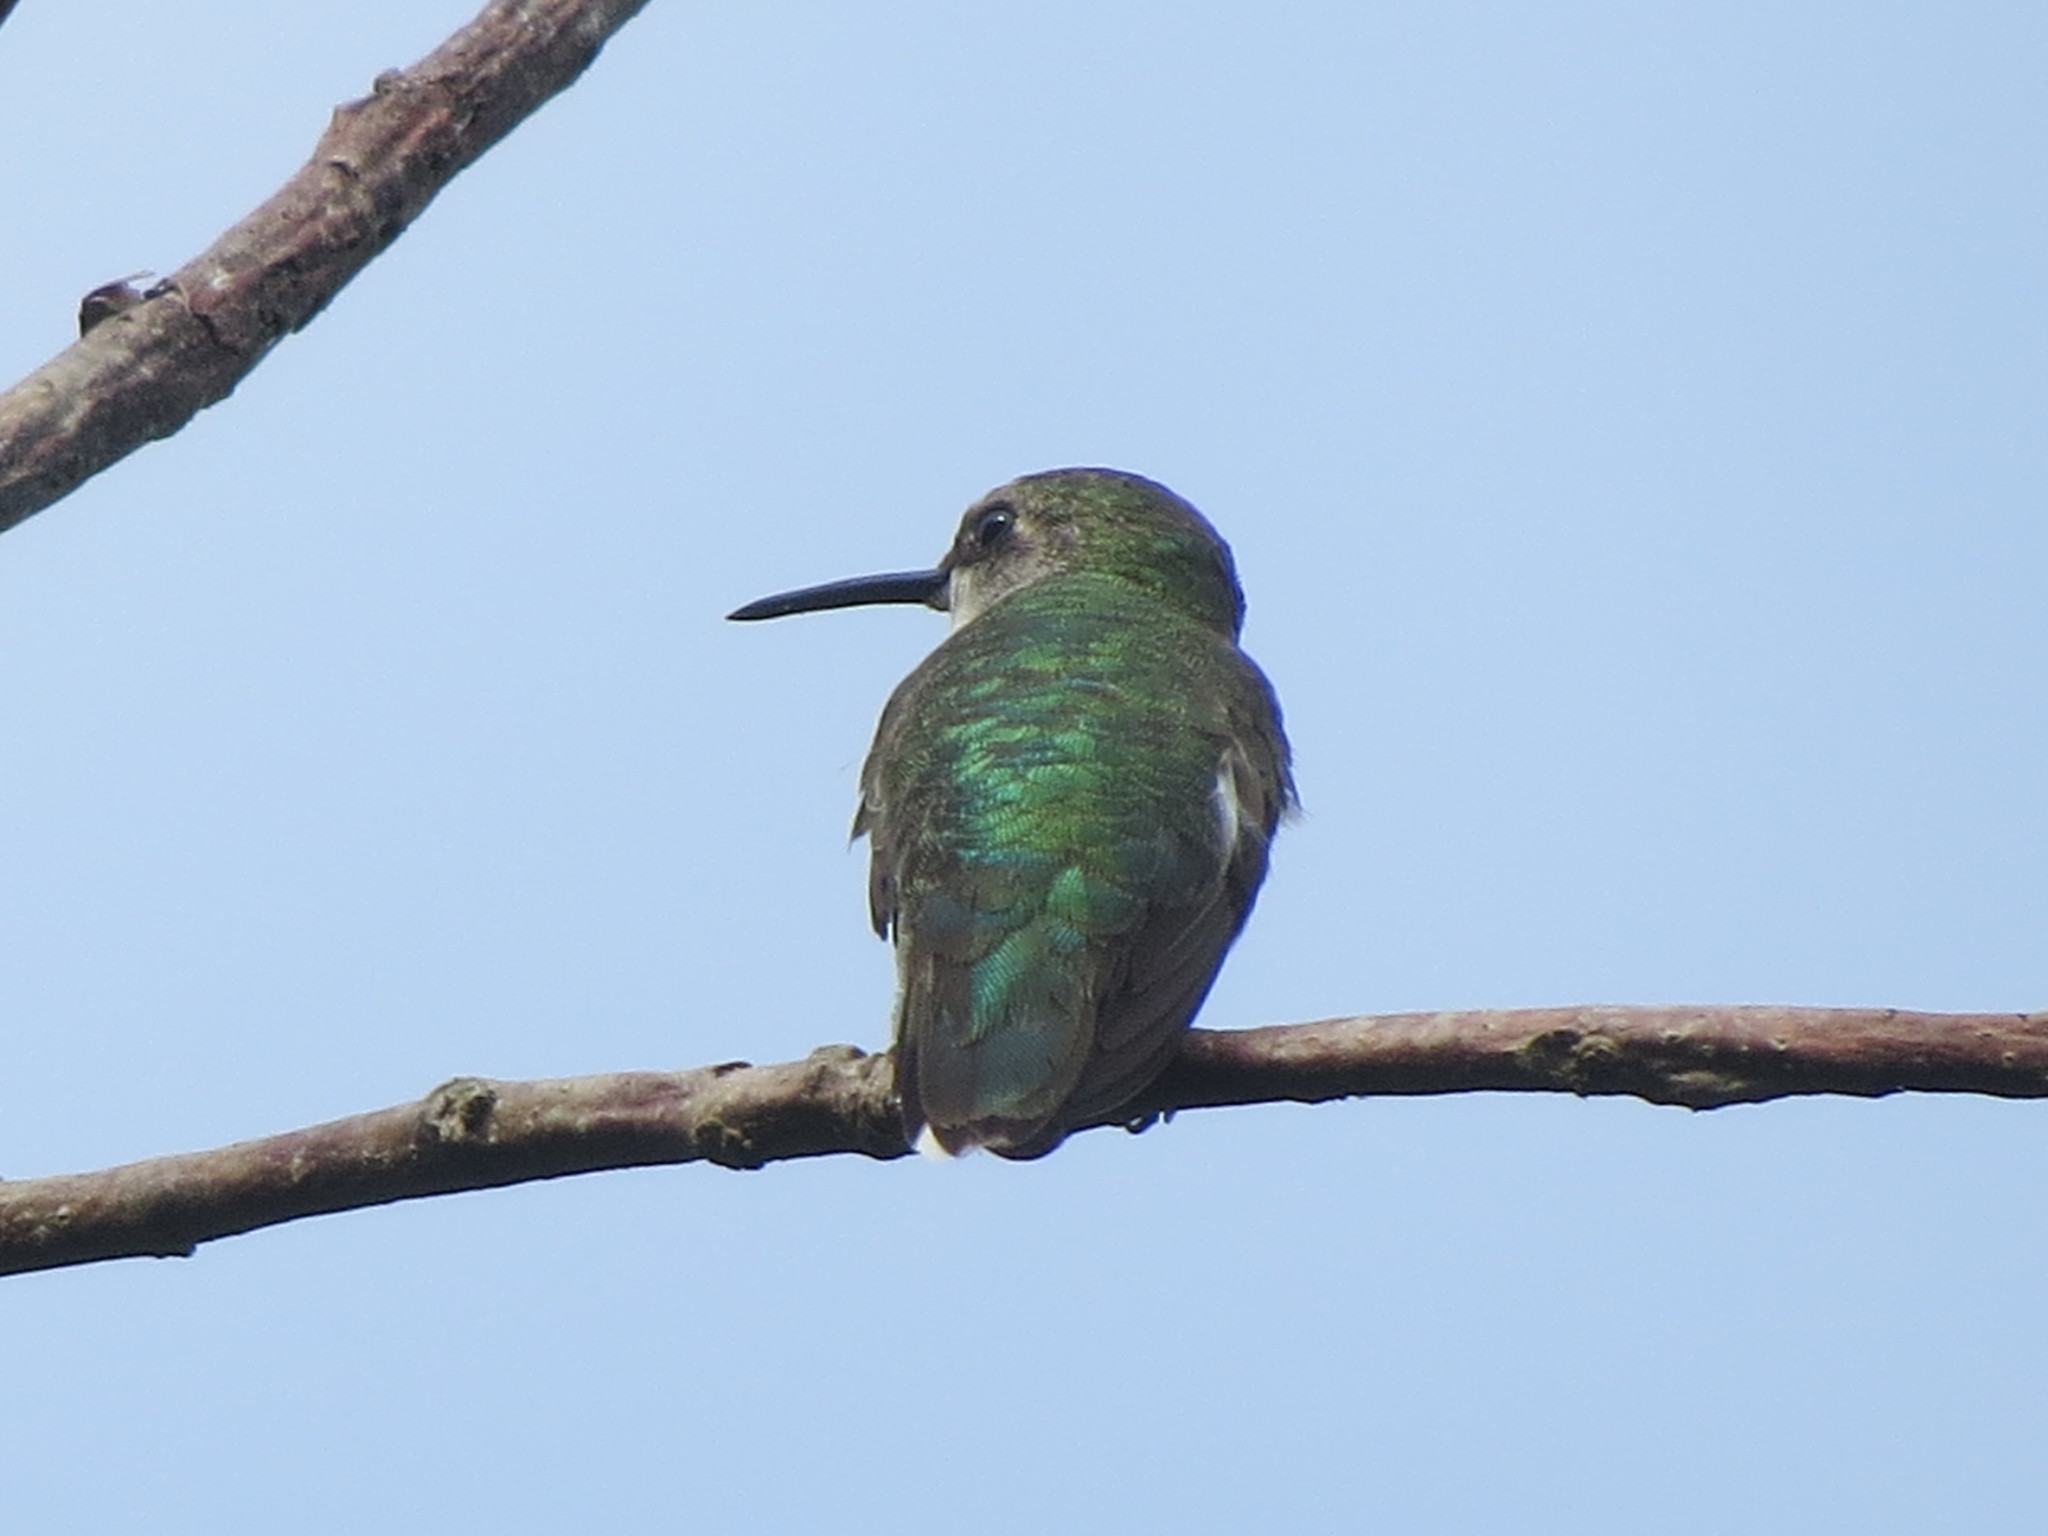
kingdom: Animalia
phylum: Chordata
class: Aves
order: Apodiformes
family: Trochilidae
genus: Archilochus
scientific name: Archilochus colubris
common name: Ruby-throated hummingbird
